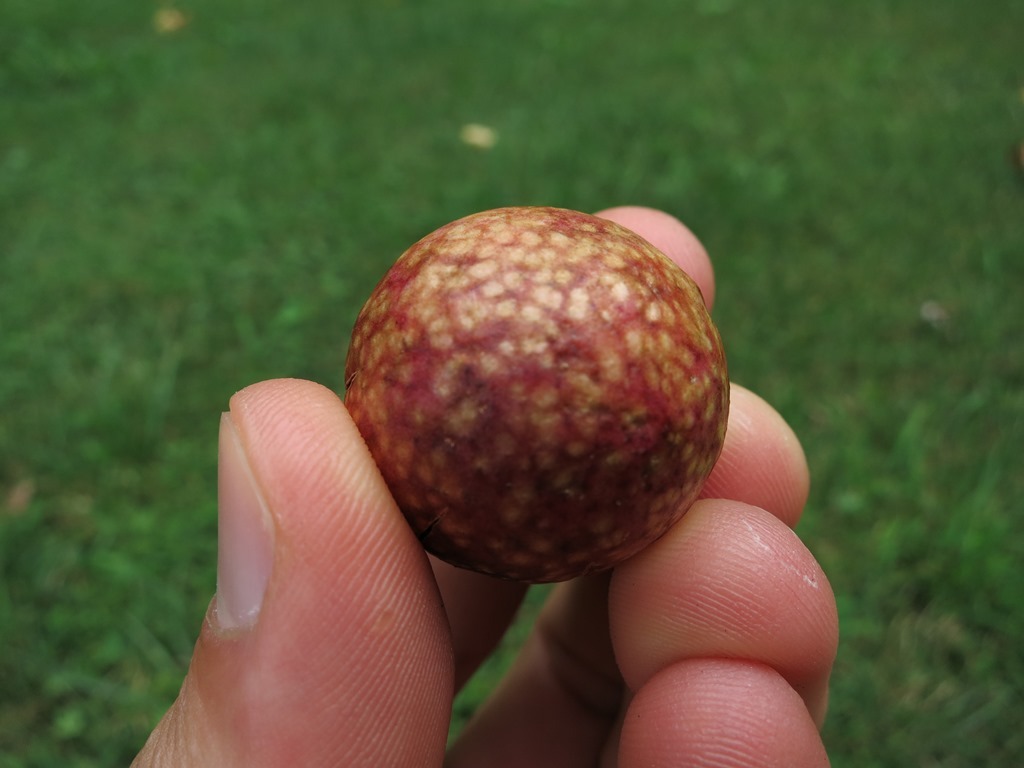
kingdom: Animalia
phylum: Arthropoda
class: Insecta
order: Hymenoptera
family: Cynipidae
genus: Amphibolips
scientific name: Amphibolips
